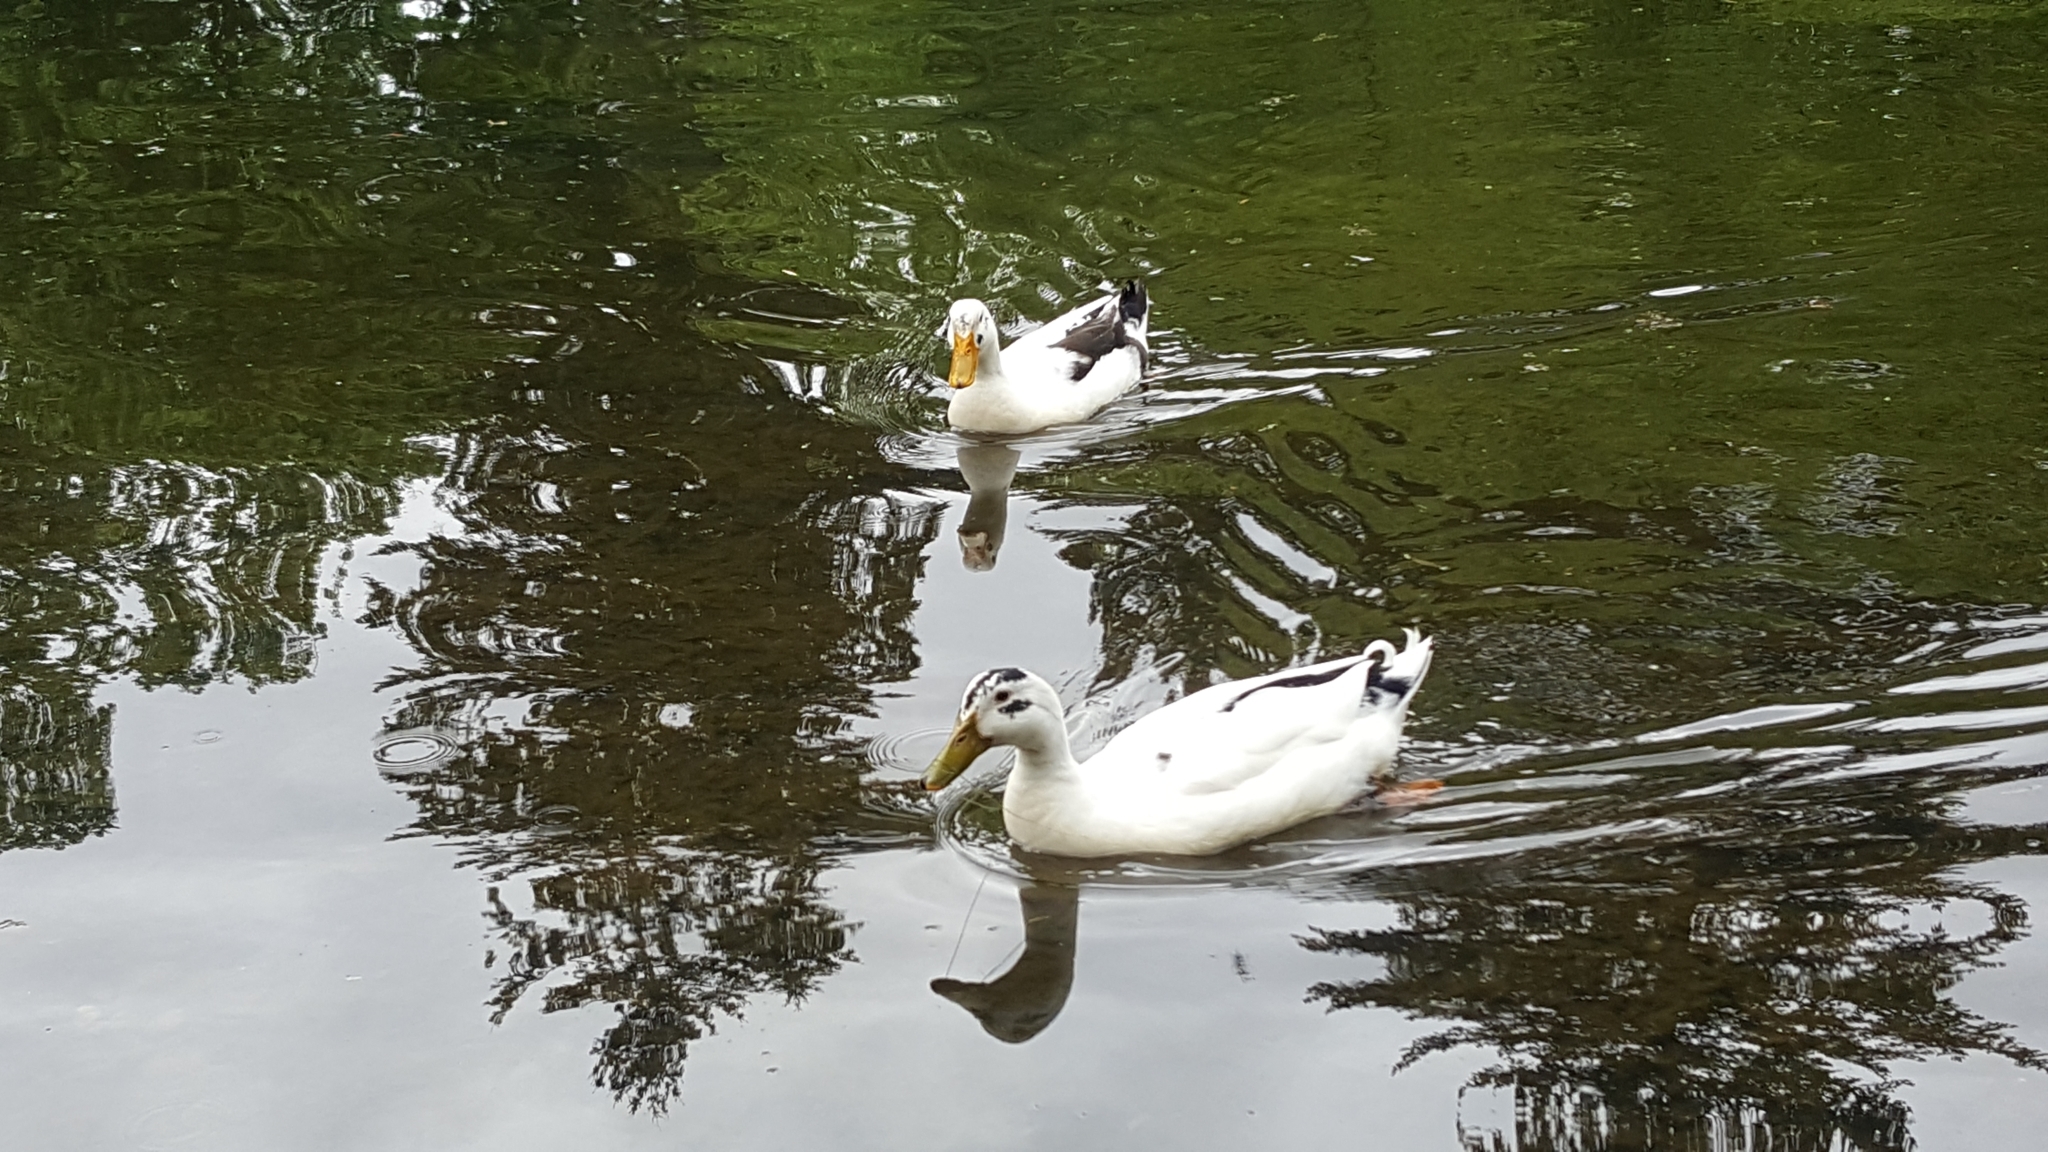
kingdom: Animalia
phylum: Chordata
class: Aves
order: Anseriformes
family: Anatidae
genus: Anas
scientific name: Anas platyrhynchos
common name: Mallard
